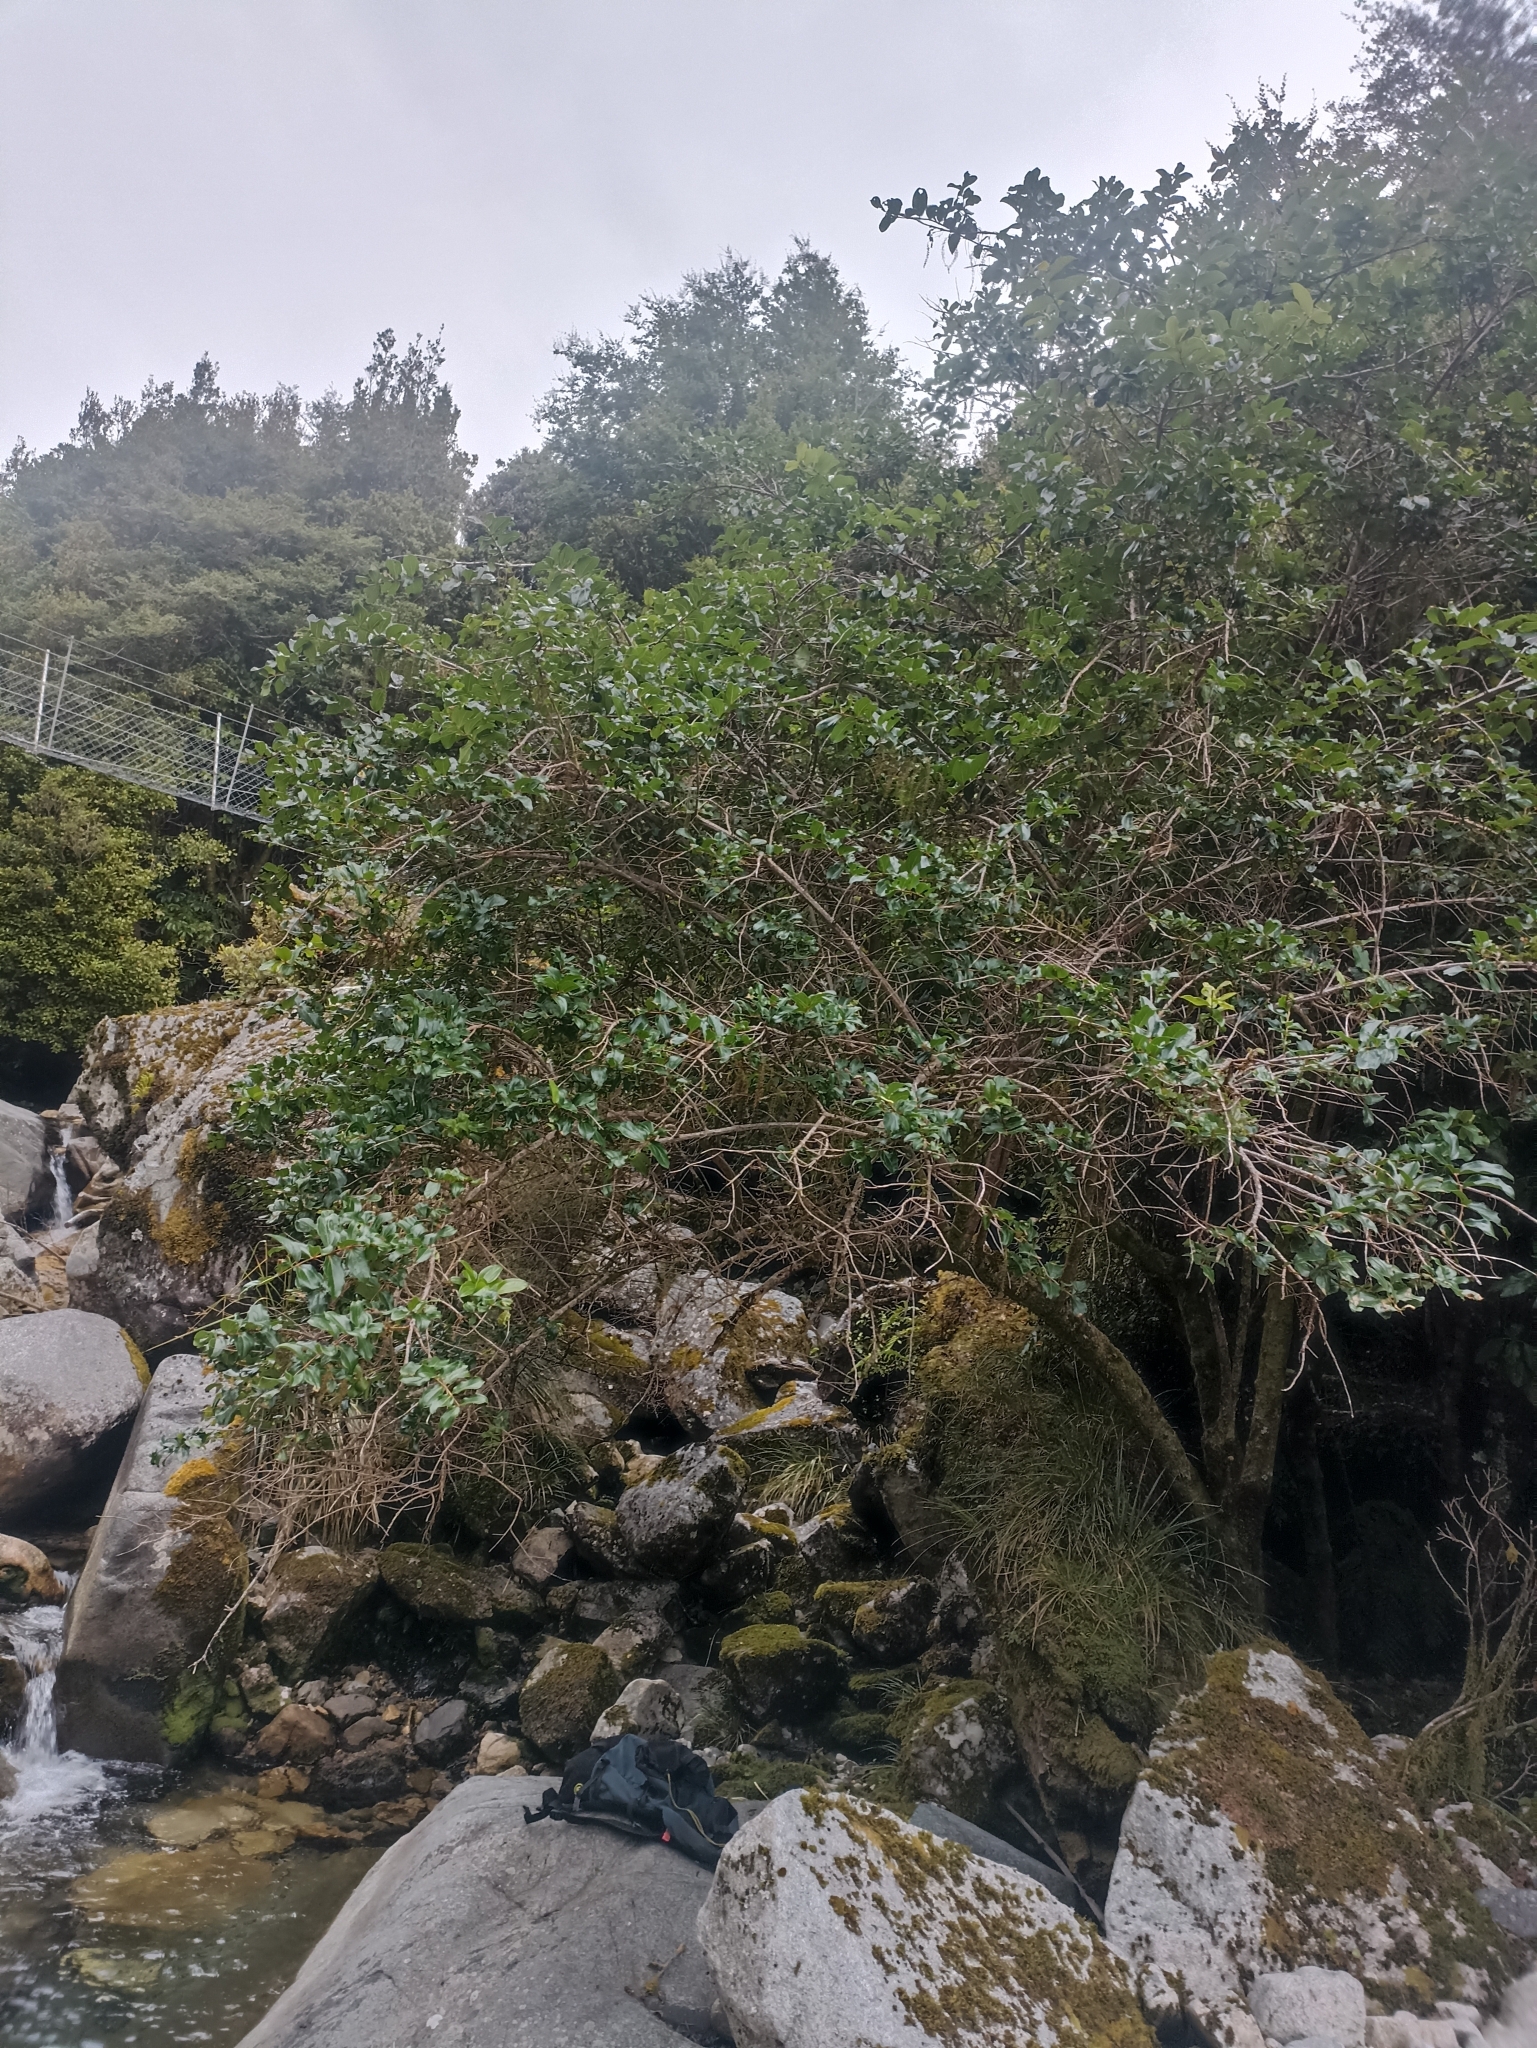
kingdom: Plantae
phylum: Tracheophyta
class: Magnoliopsida
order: Cucurbitales
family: Coriariaceae
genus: Coriaria
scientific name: Coriaria arborea
